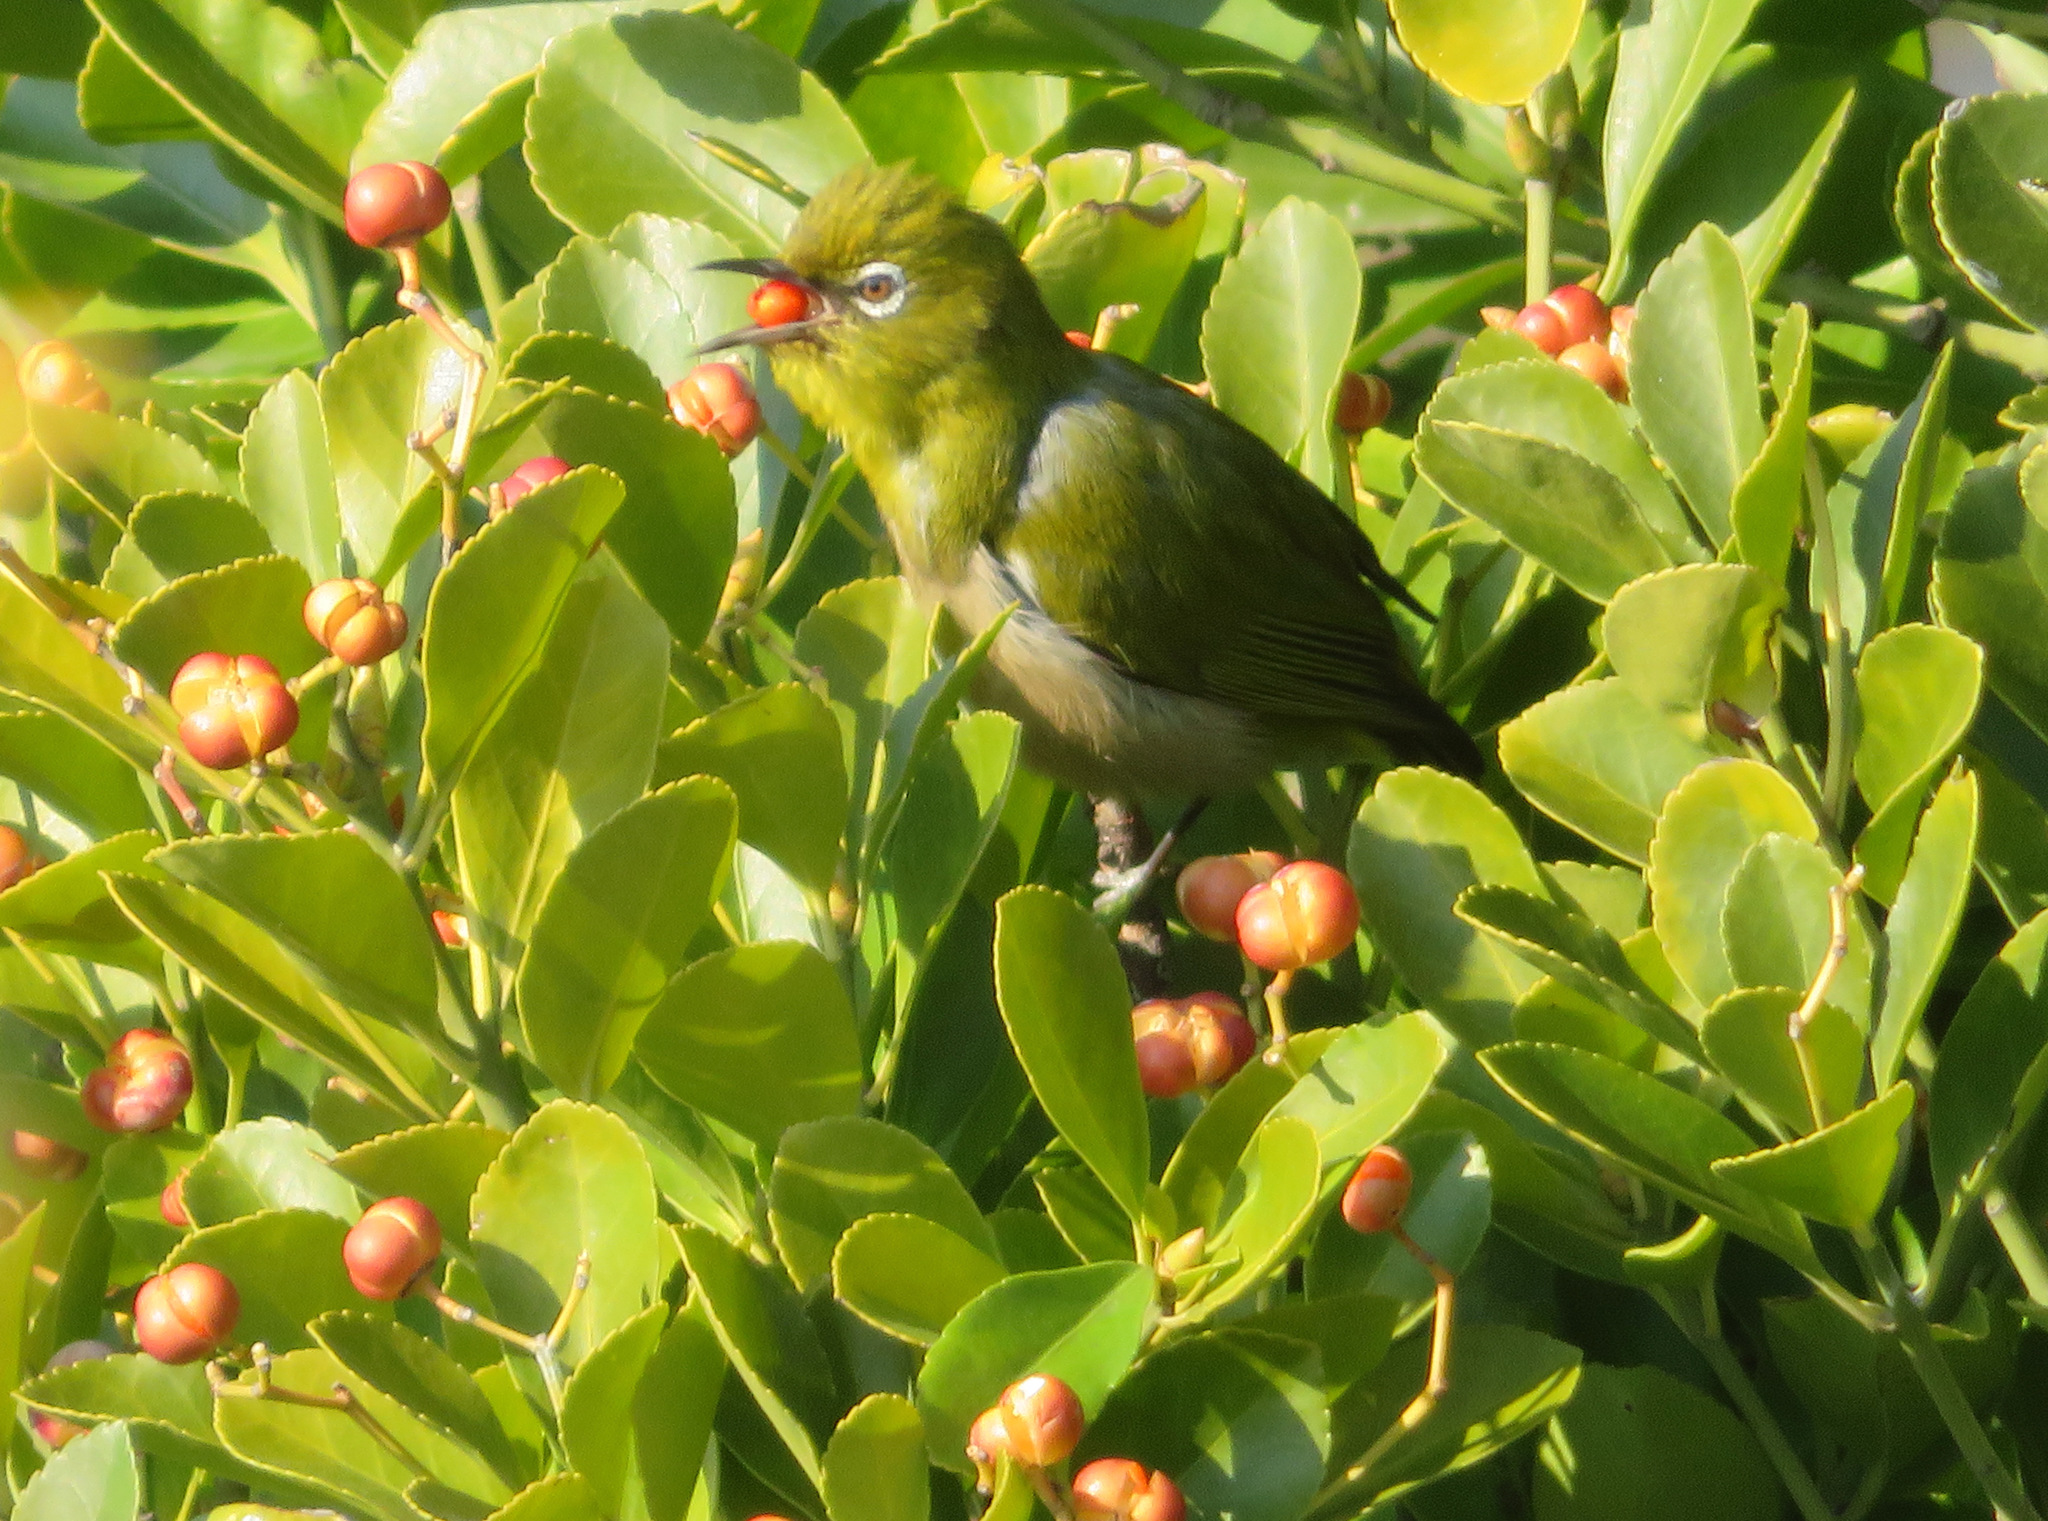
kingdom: Animalia
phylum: Chordata
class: Aves
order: Passeriformes
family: Zosteropidae
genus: Zosterops
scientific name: Zosterops japonicus
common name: Japanese white-eye
